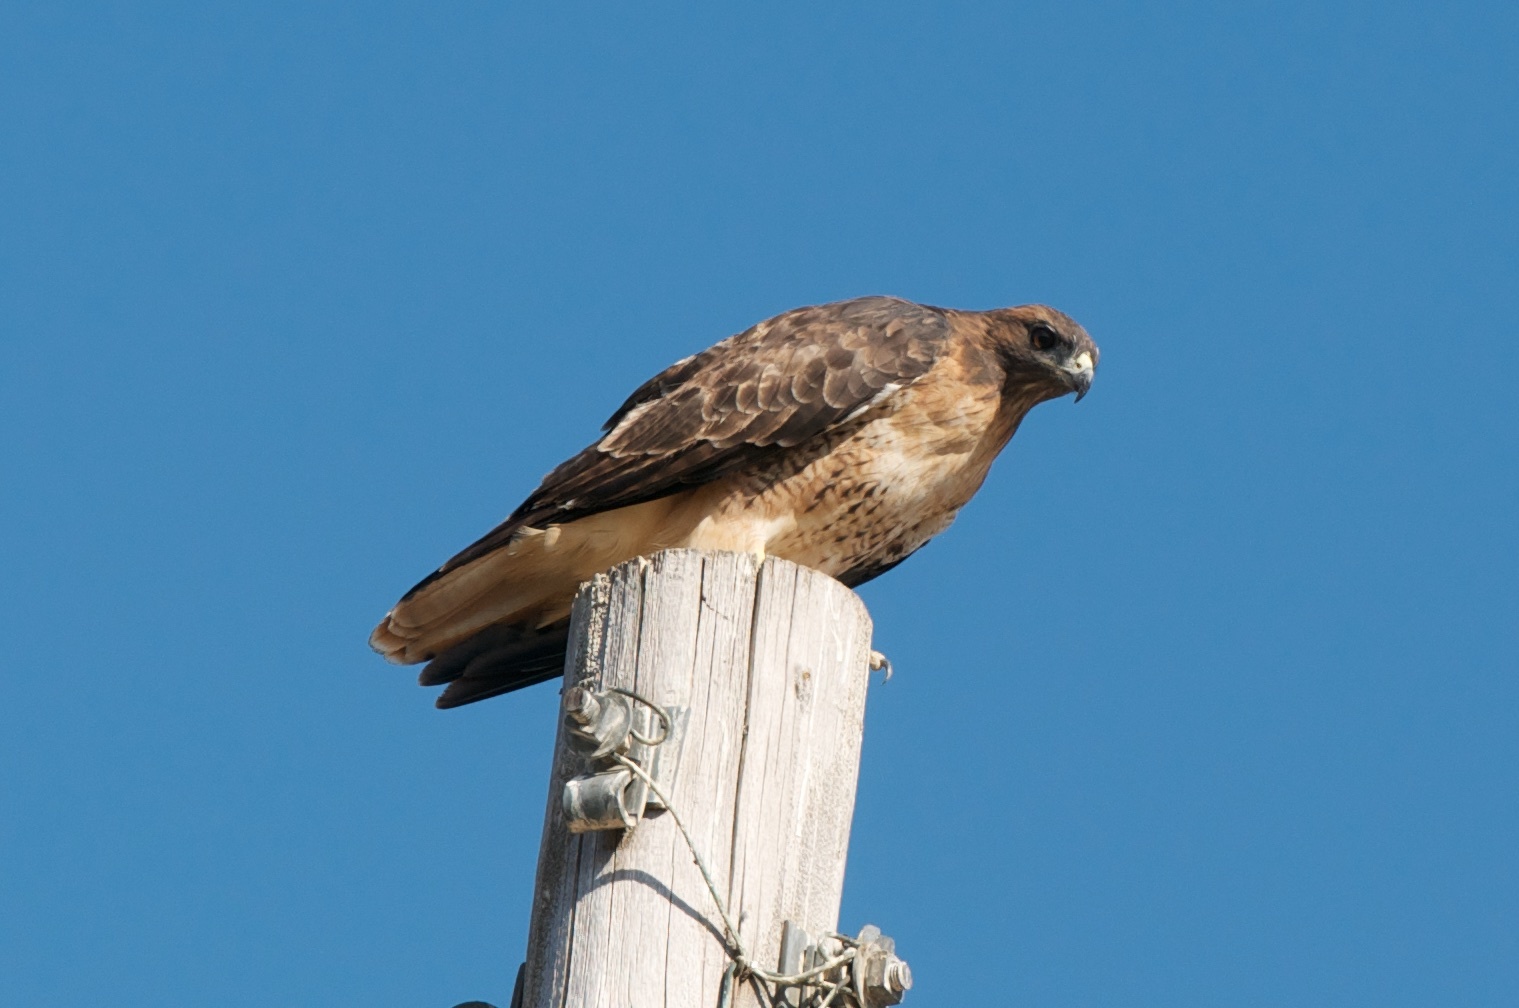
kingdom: Animalia
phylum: Chordata
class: Aves
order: Accipitriformes
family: Accipitridae
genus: Buteo
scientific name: Buteo jamaicensis
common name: Red-tailed hawk
